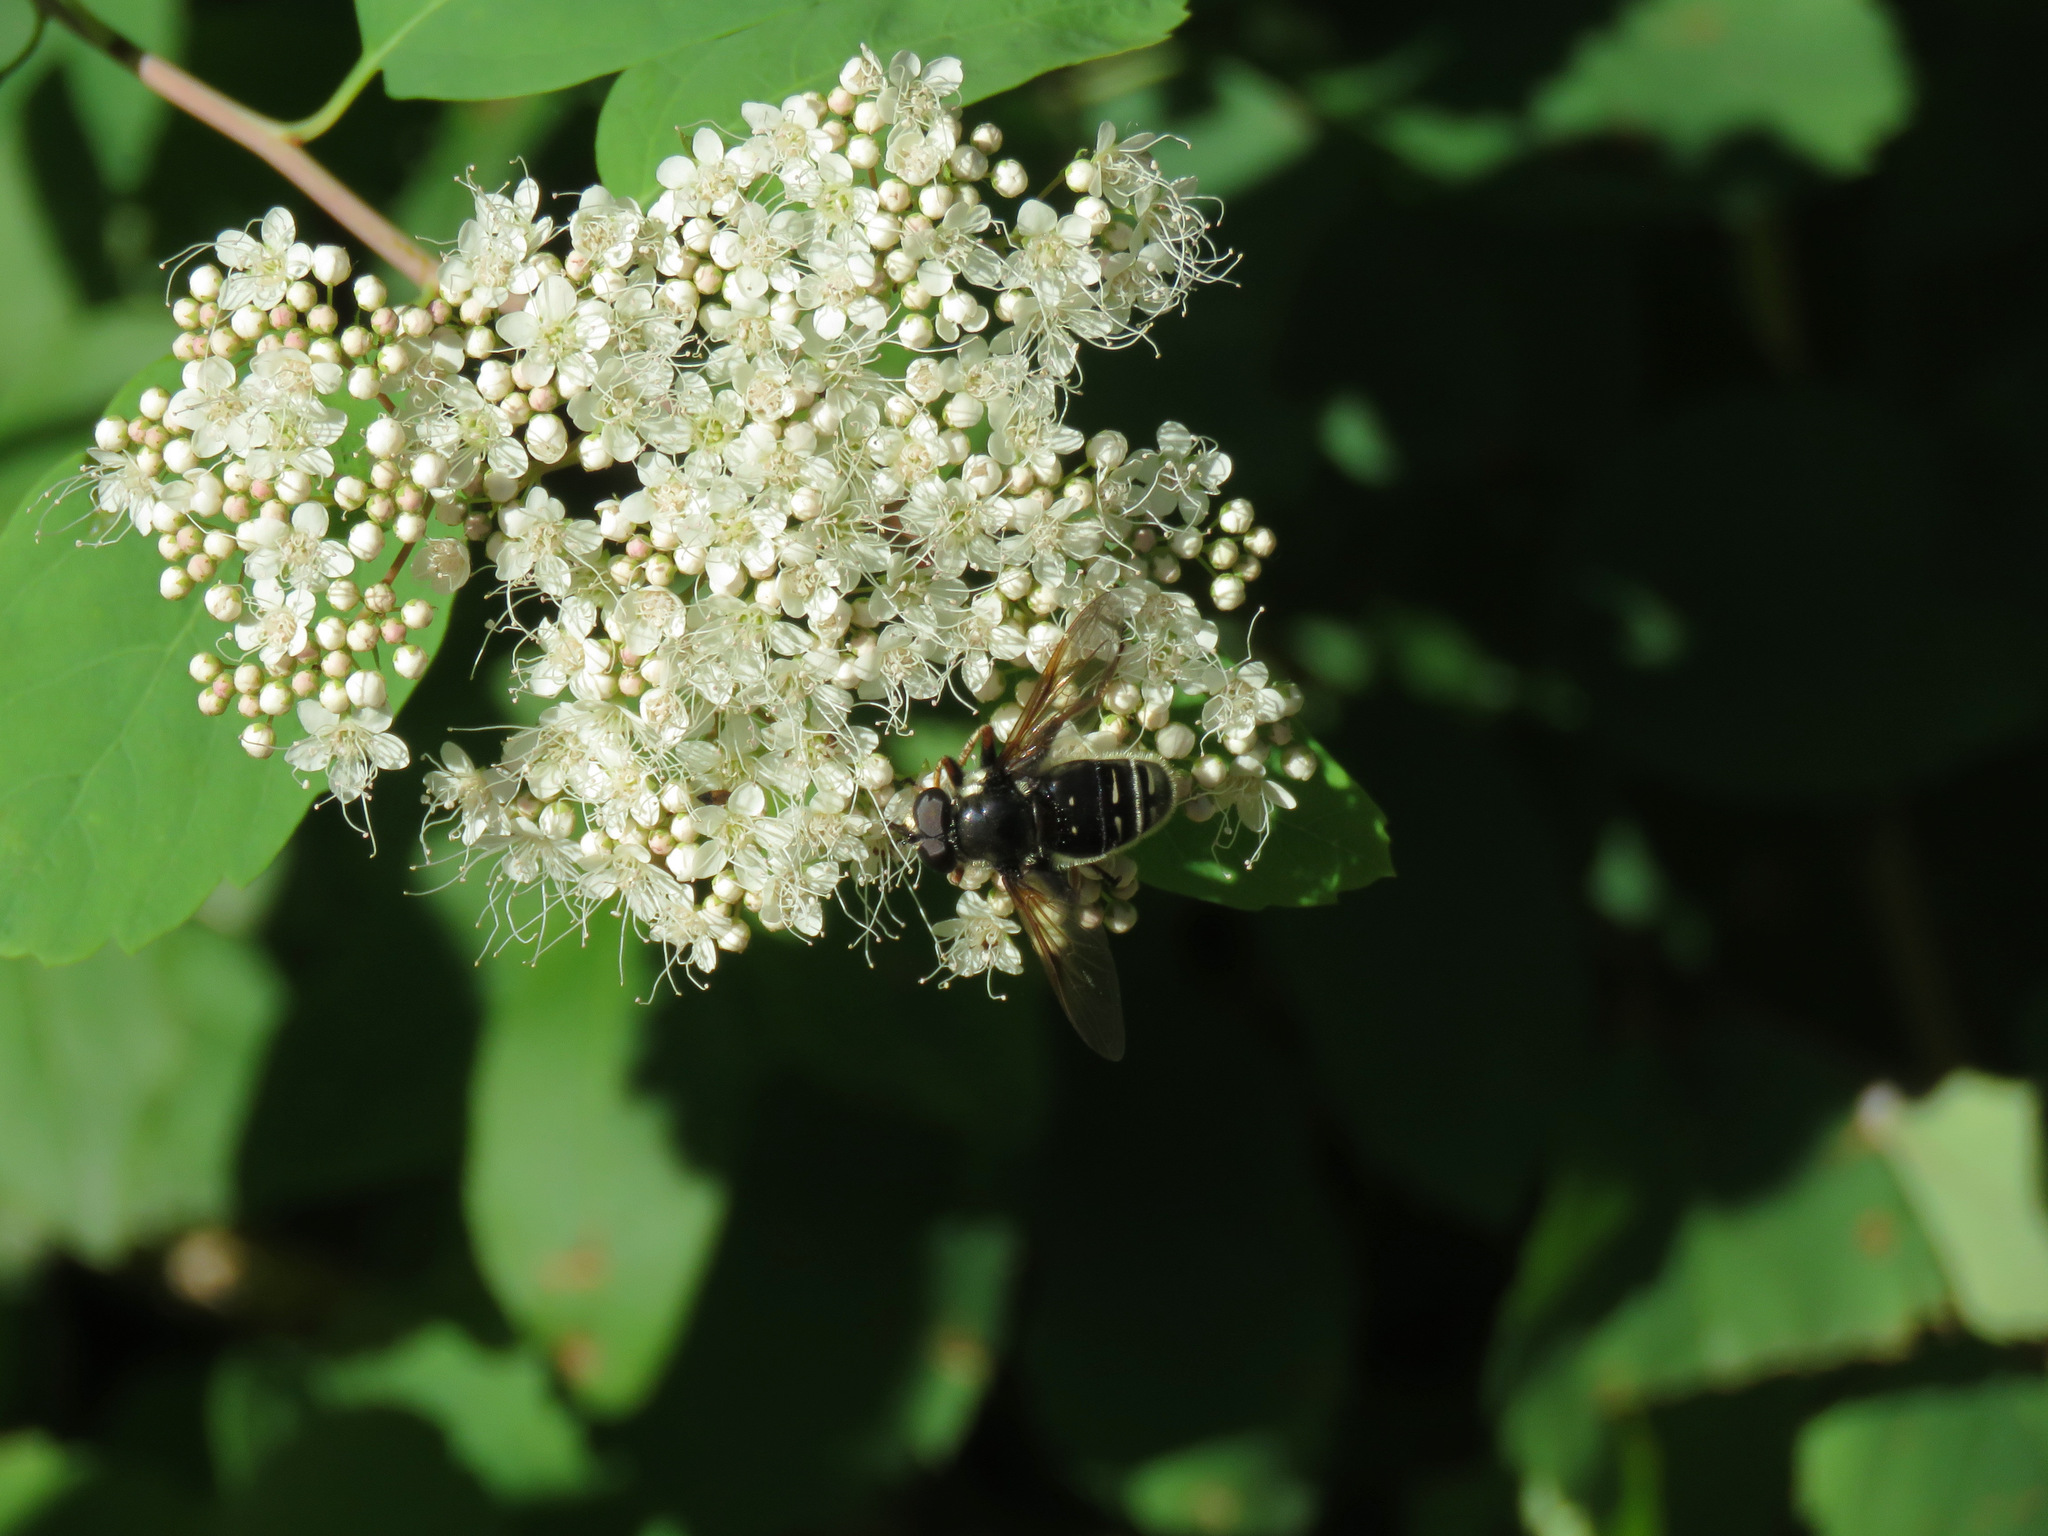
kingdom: Animalia
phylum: Arthropoda
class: Insecta
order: Diptera
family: Syrphidae
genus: Sericomyia
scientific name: Sericomyia militaris
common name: Narrow-banded pond fly
